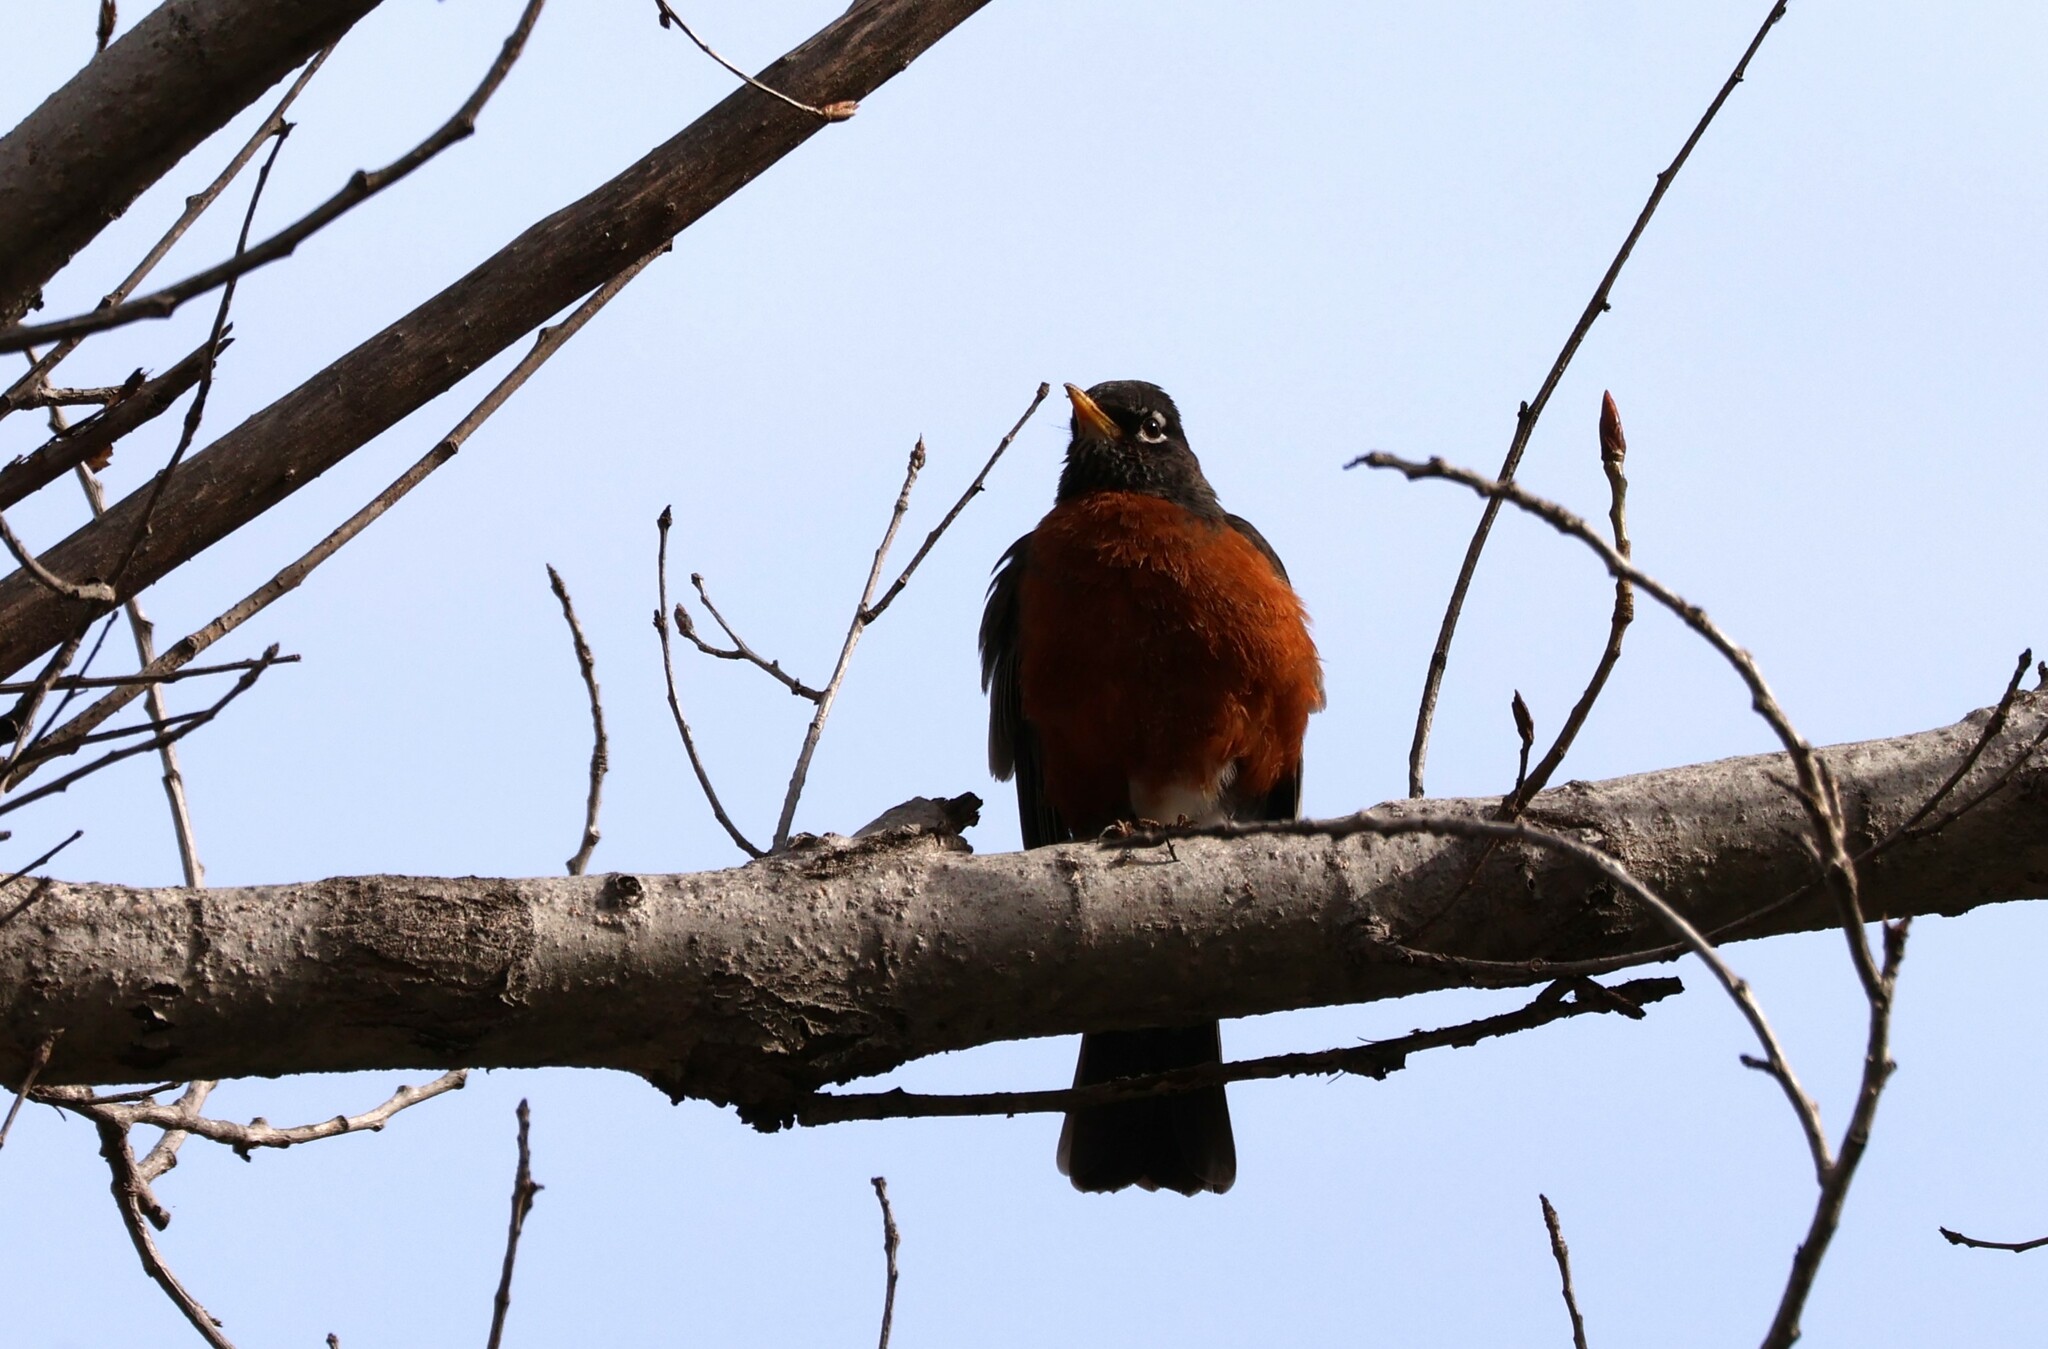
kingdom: Animalia
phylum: Chordata
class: Aves
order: Passeriformes
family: Turdidae
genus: Turdus
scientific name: Turdus migratorius
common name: American robin
